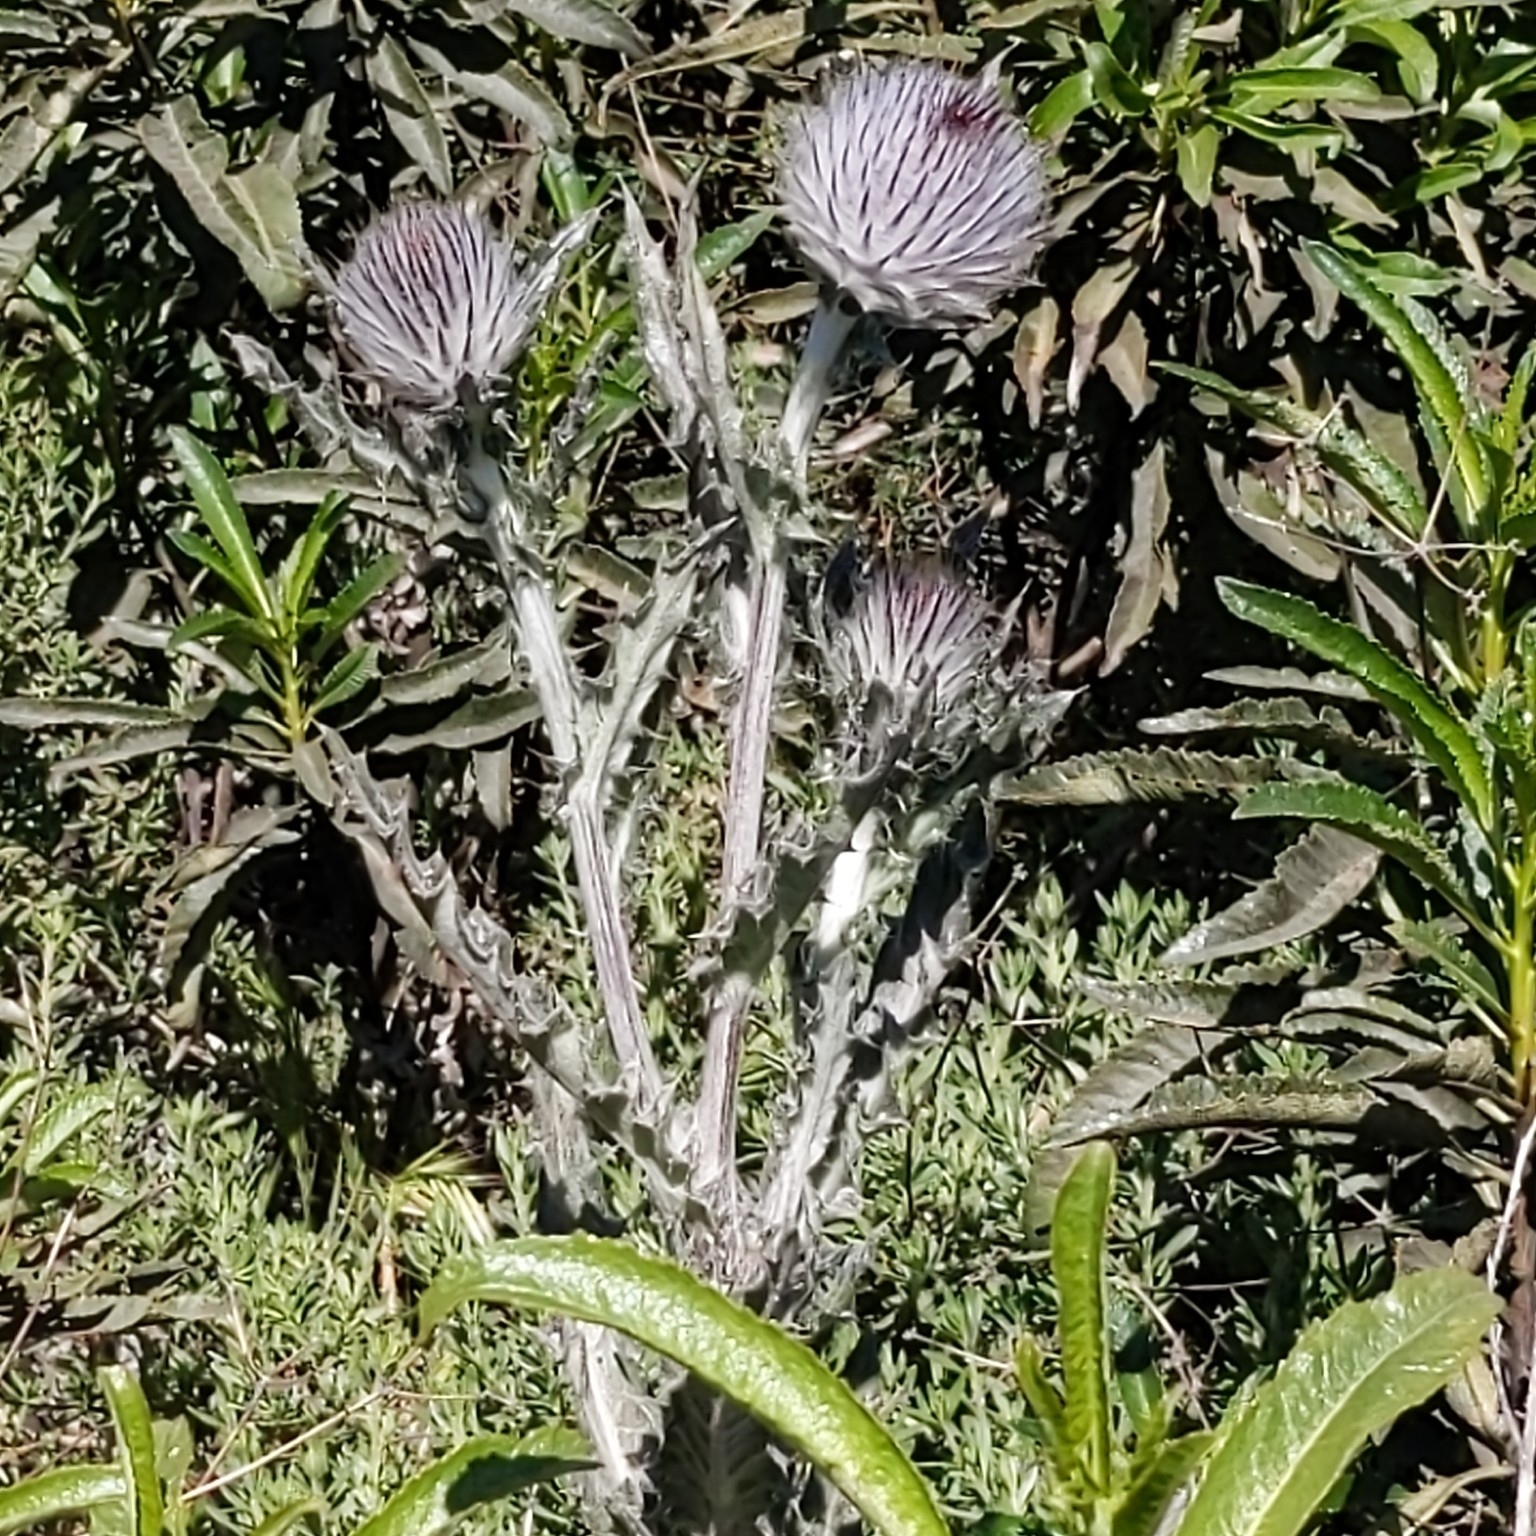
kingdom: Plantae
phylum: Tracheophyta
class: Magnoliopsida
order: Asterales
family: Asteraceae
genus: Cirsium
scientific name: Cirsium occidentale
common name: Western thistle
